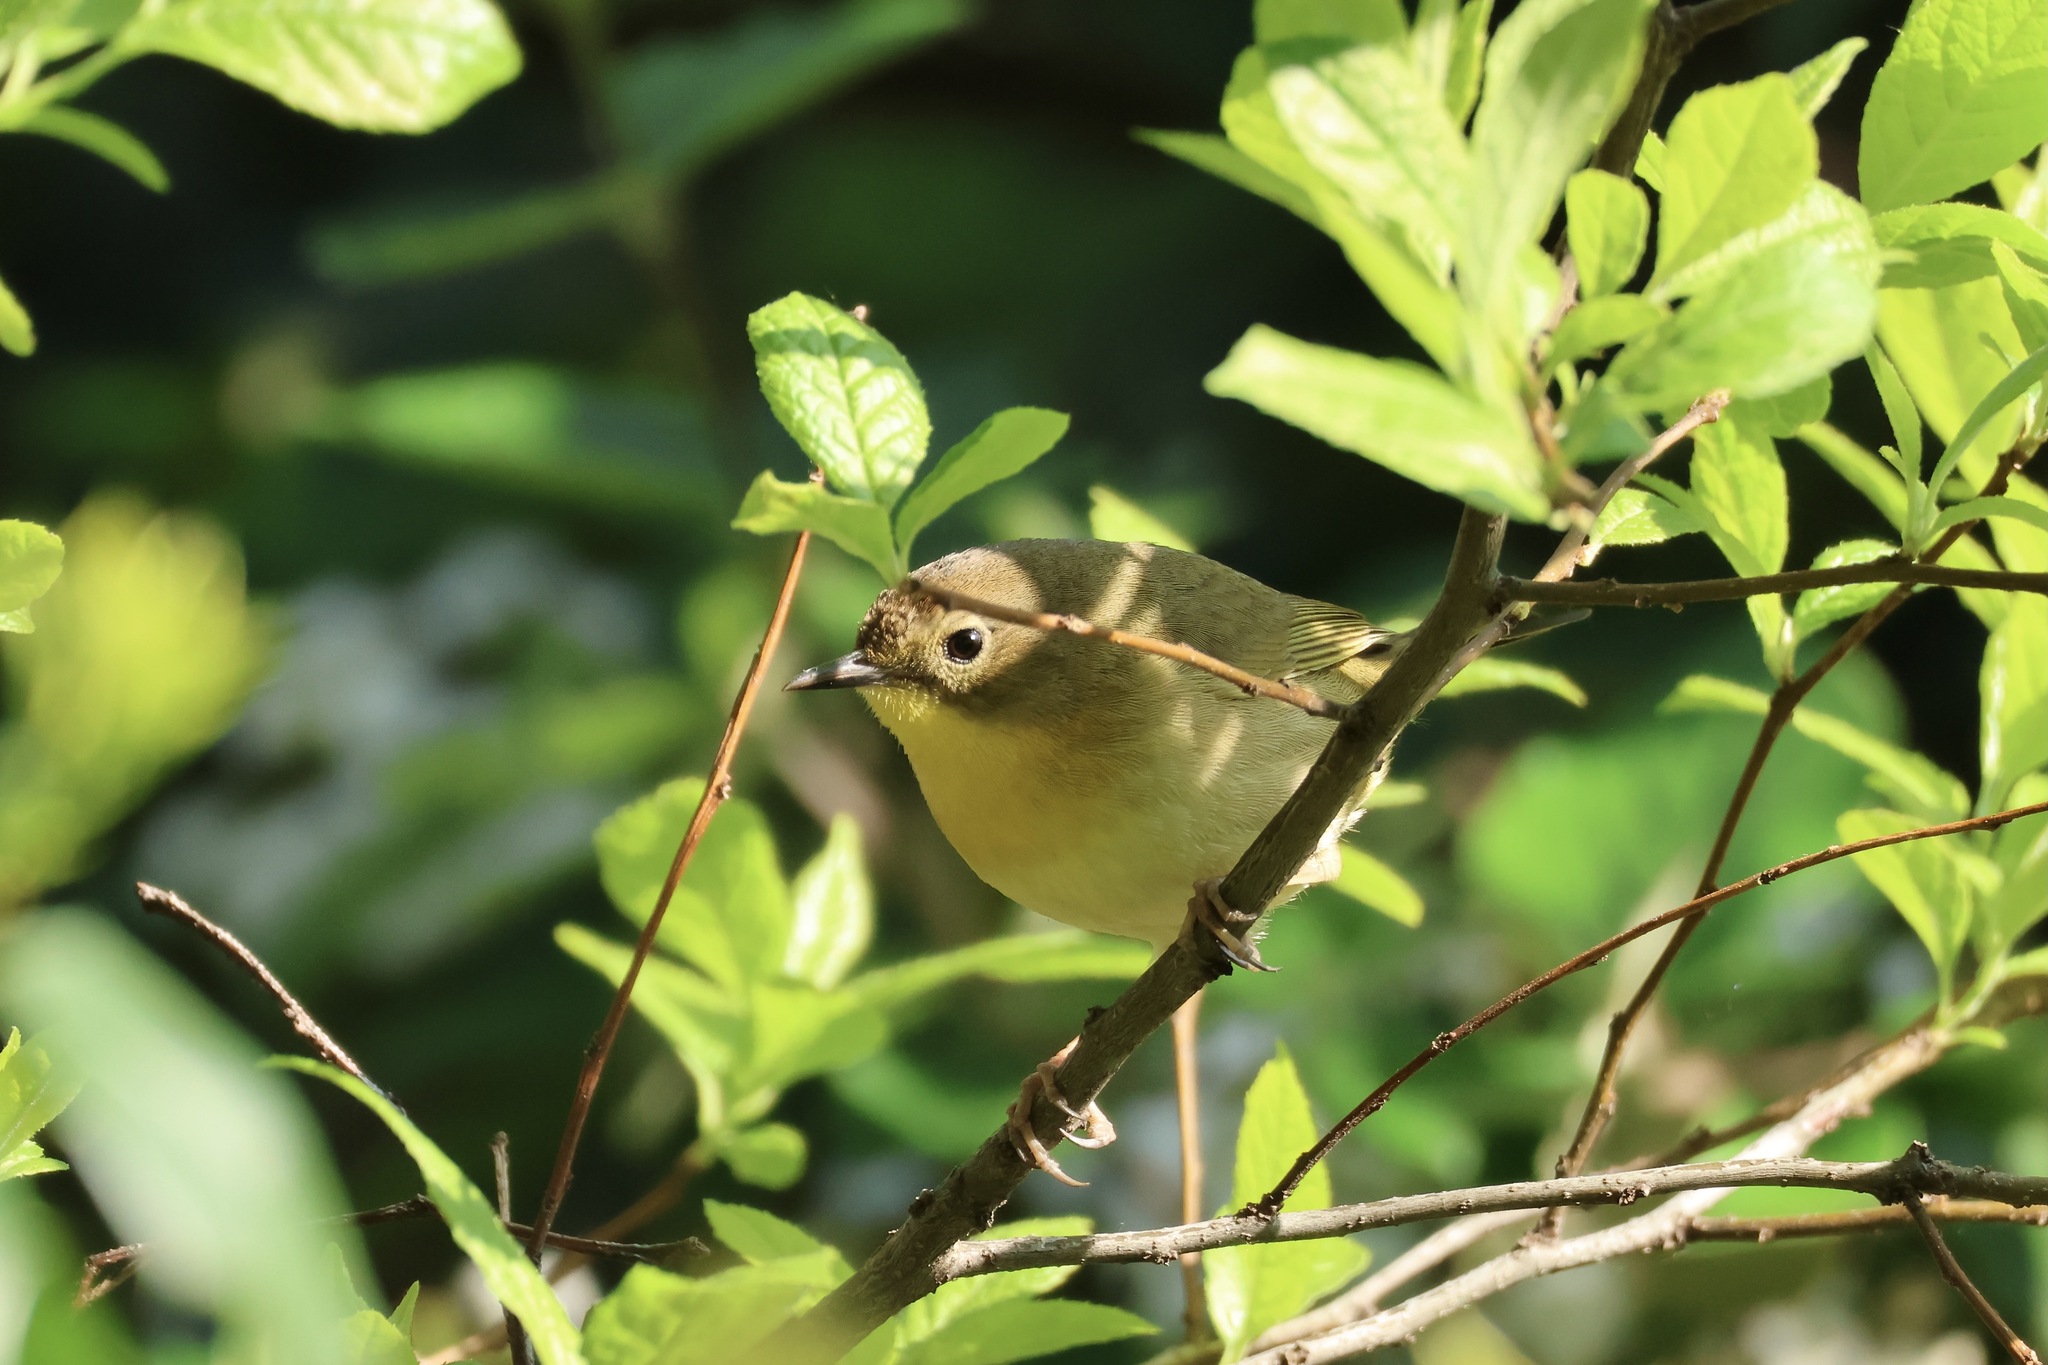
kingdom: Animalia
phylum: Chordata
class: Aves
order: Passeriformes
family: Parulidae
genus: Geothlypis
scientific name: Geothlypis trichas
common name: Common yellowthroat
